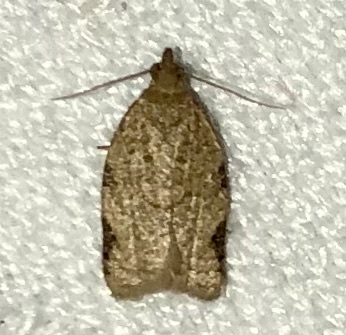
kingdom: Animalia
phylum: Arthropoda
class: Insecta
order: Lepidoptera
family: Tortricidae
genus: Clepsis
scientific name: Clepsis virescana
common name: Greenish apple moth
